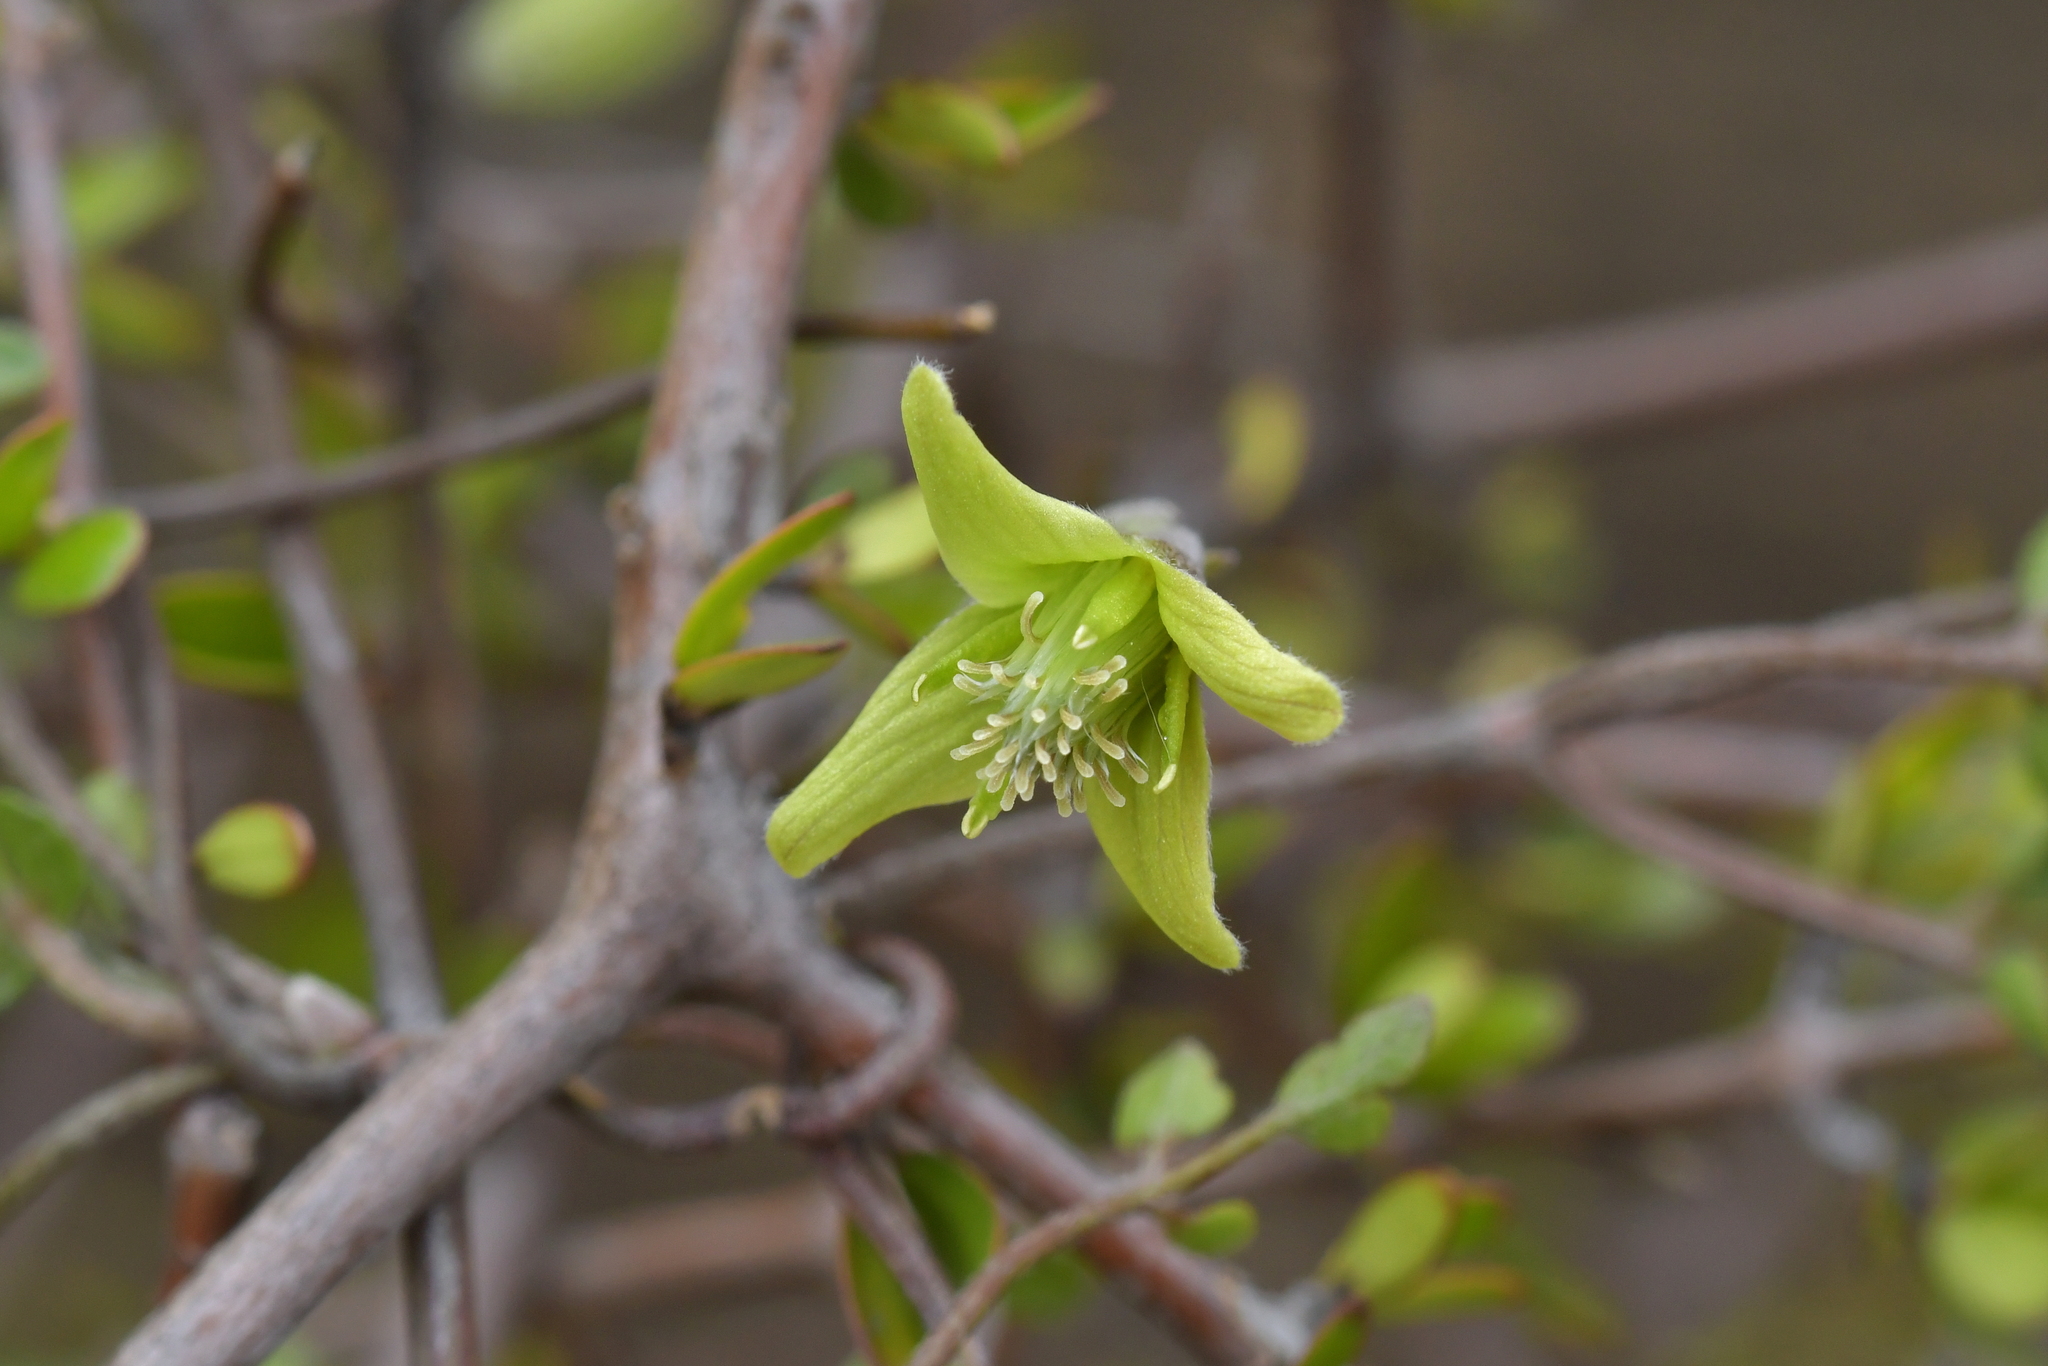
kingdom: Plantae
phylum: Tracheophyta
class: Magnoliopsida
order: Ranunculales
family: Ranunculaceae
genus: Clematis
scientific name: Clematis marata
